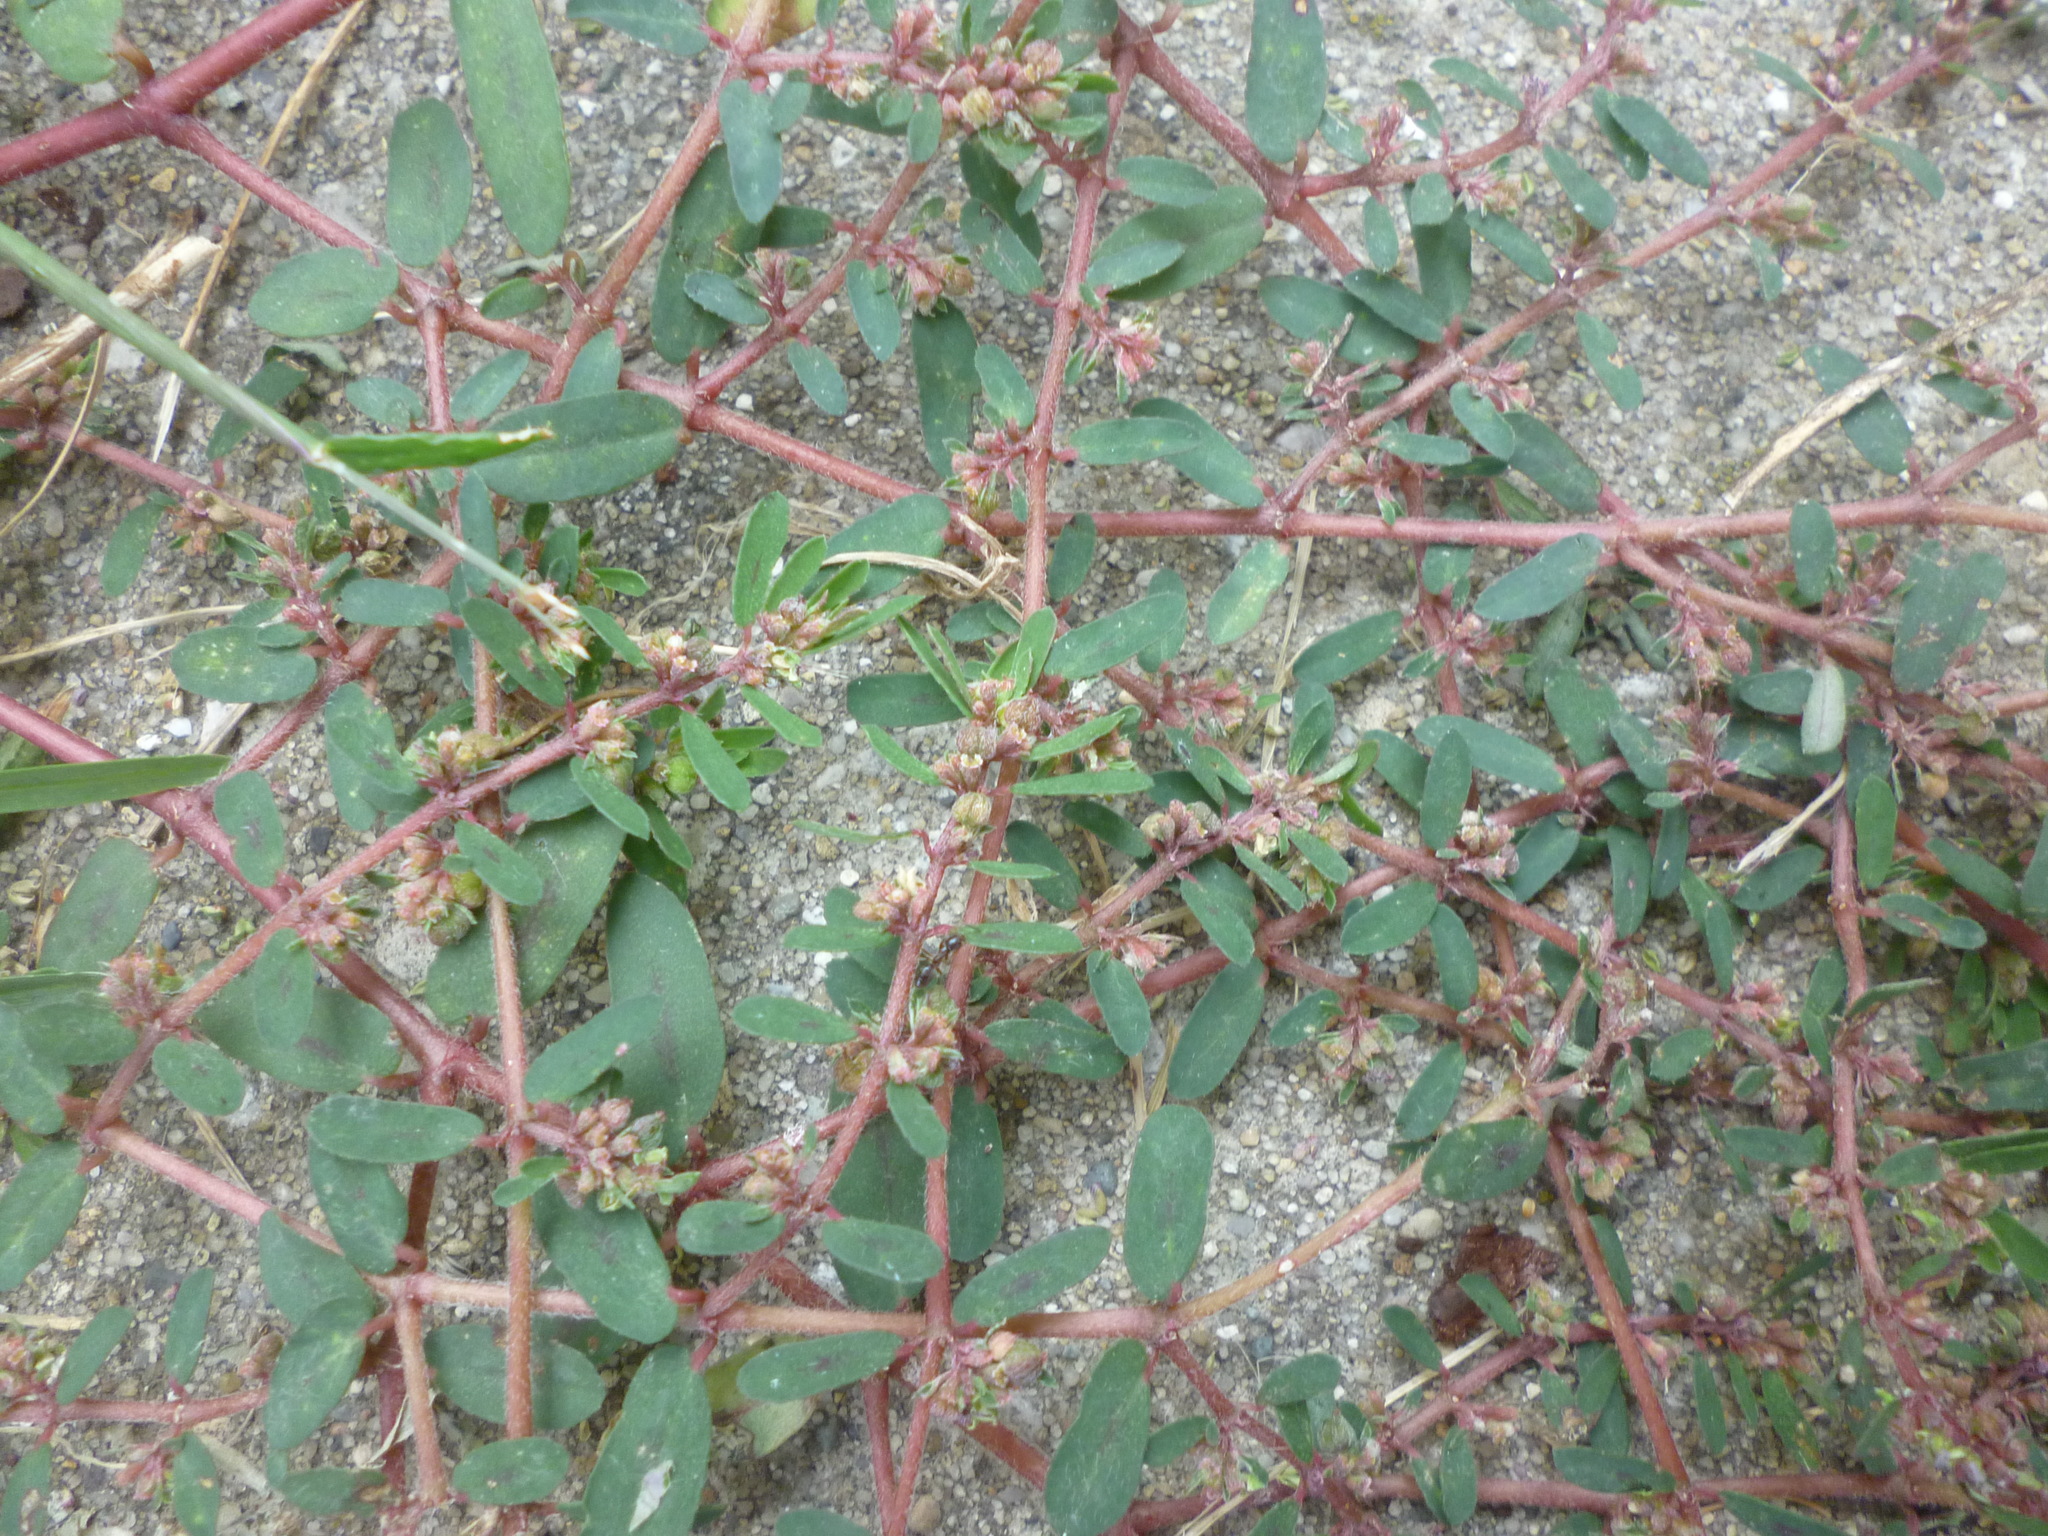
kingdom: Plantae
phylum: Tracheophyta
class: Magnoliopsida
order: Malpighiales
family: Euphorbiaceae
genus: Euphorbia
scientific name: Euphorbia maculata
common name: Spotted spurge
